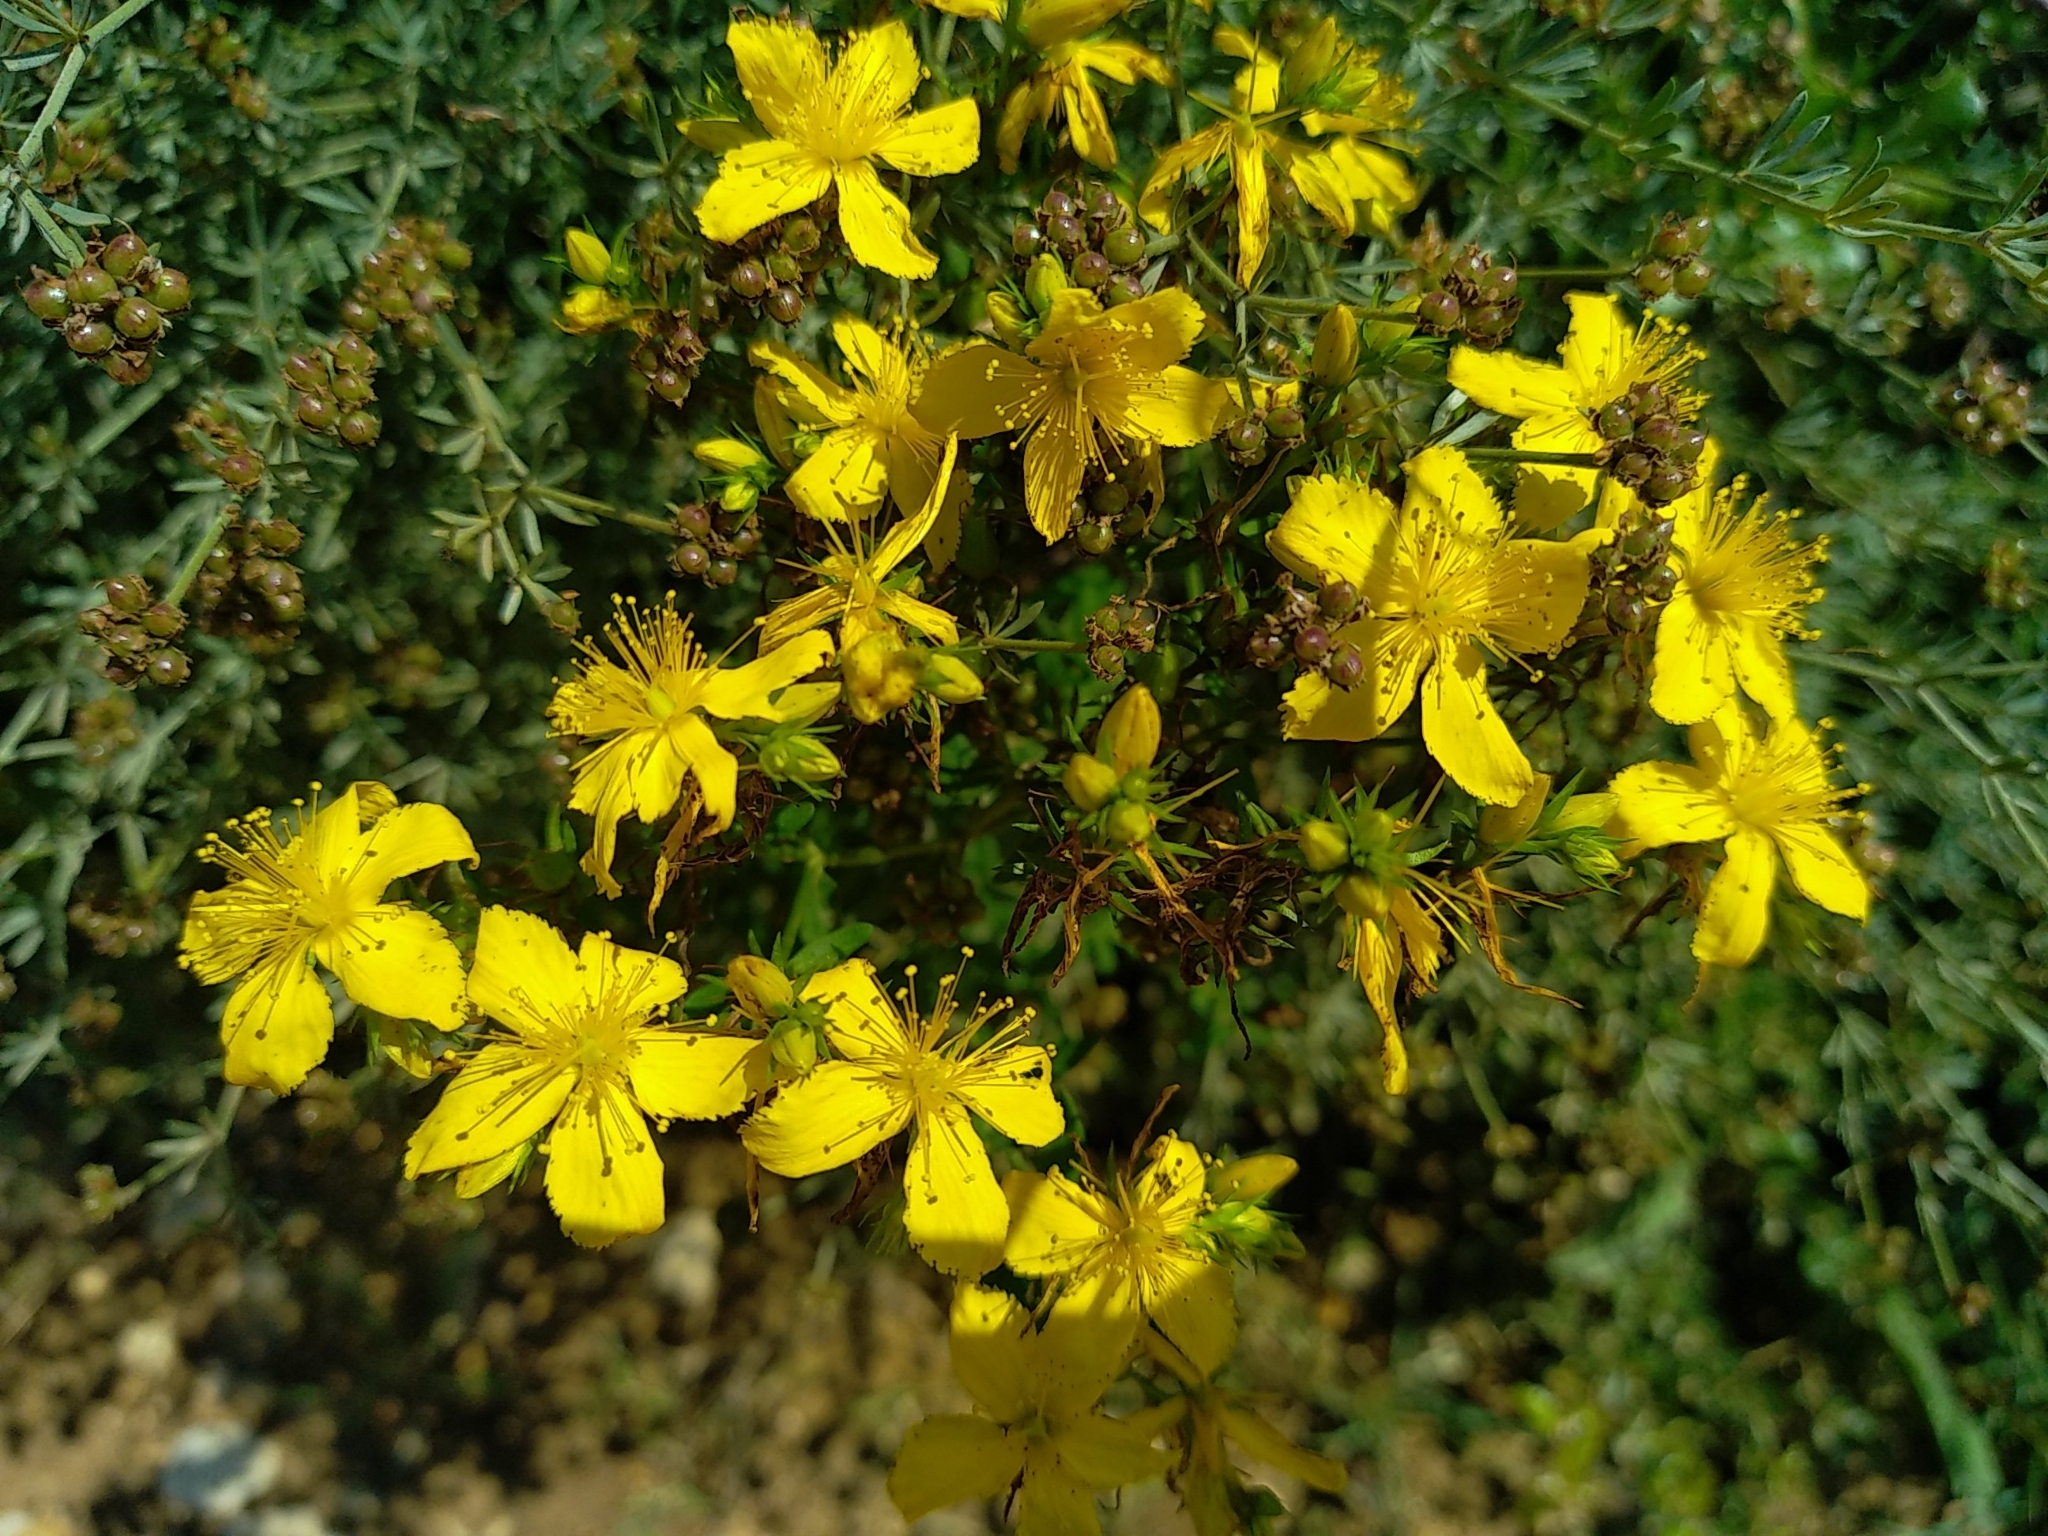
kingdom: Plantae
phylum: Tracheophyta
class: Magnoliopsida
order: Malpighiales
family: Hypericaceae
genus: Hypericum
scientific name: Hypericum perforatum
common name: Common st. johnswort
